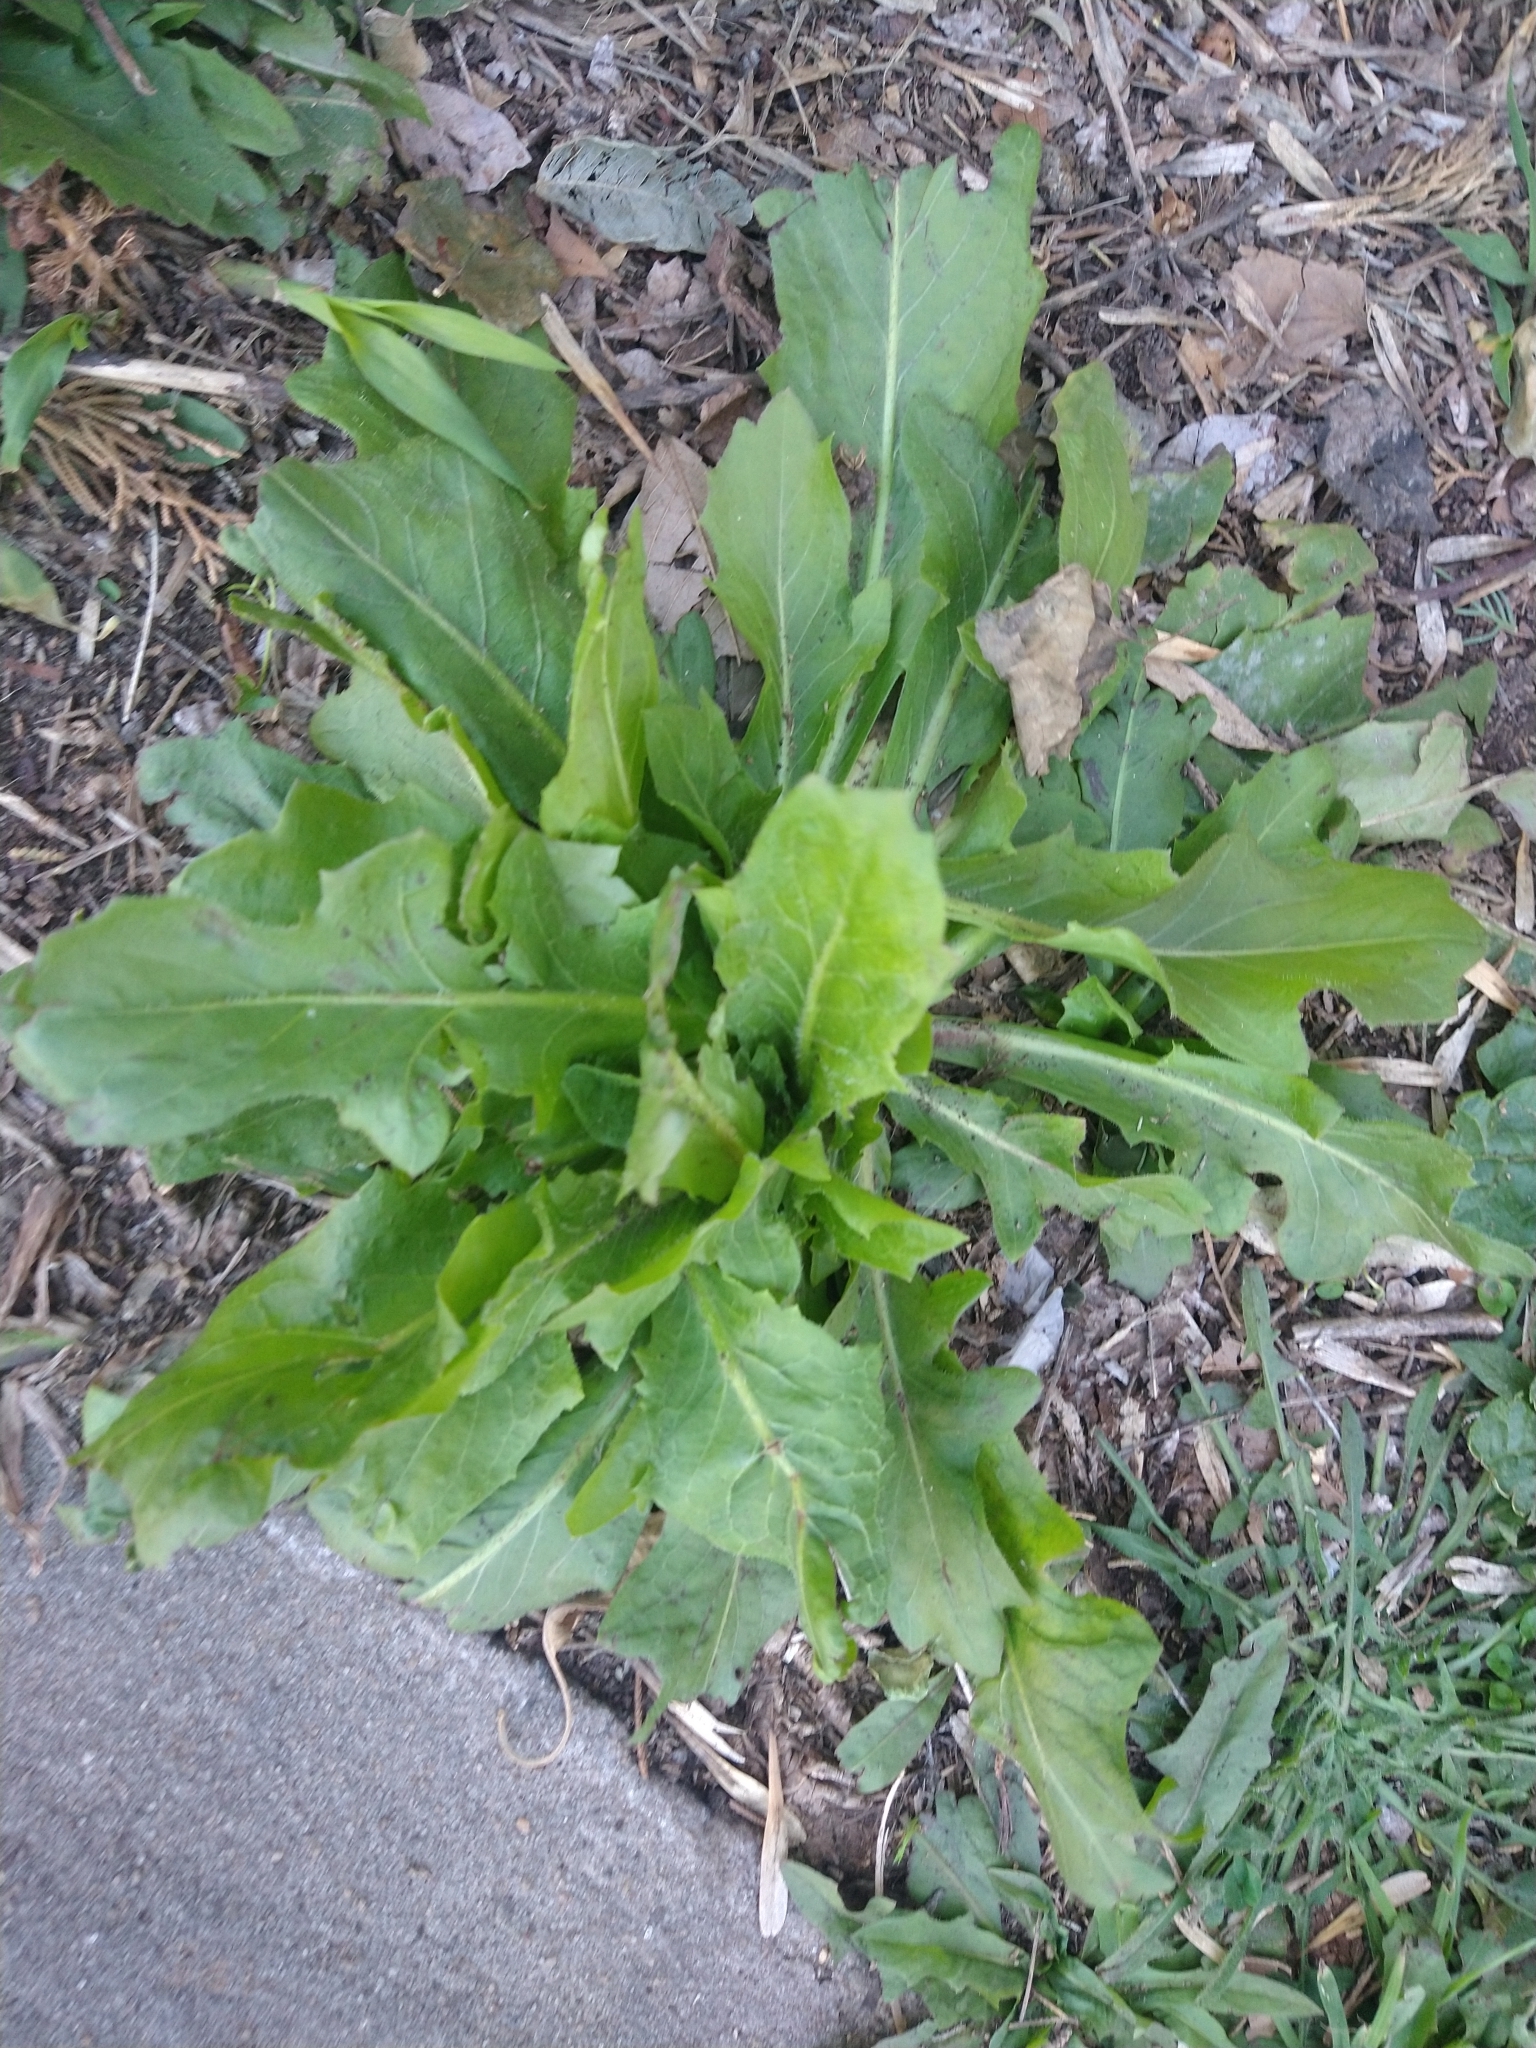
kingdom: Plantae
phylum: Tracheophyta
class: Magnoliopsida
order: Asterales
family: Asteraceae
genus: Hypochaeris
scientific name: Hypochaeris chillensis
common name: Brazilian cat's ear
